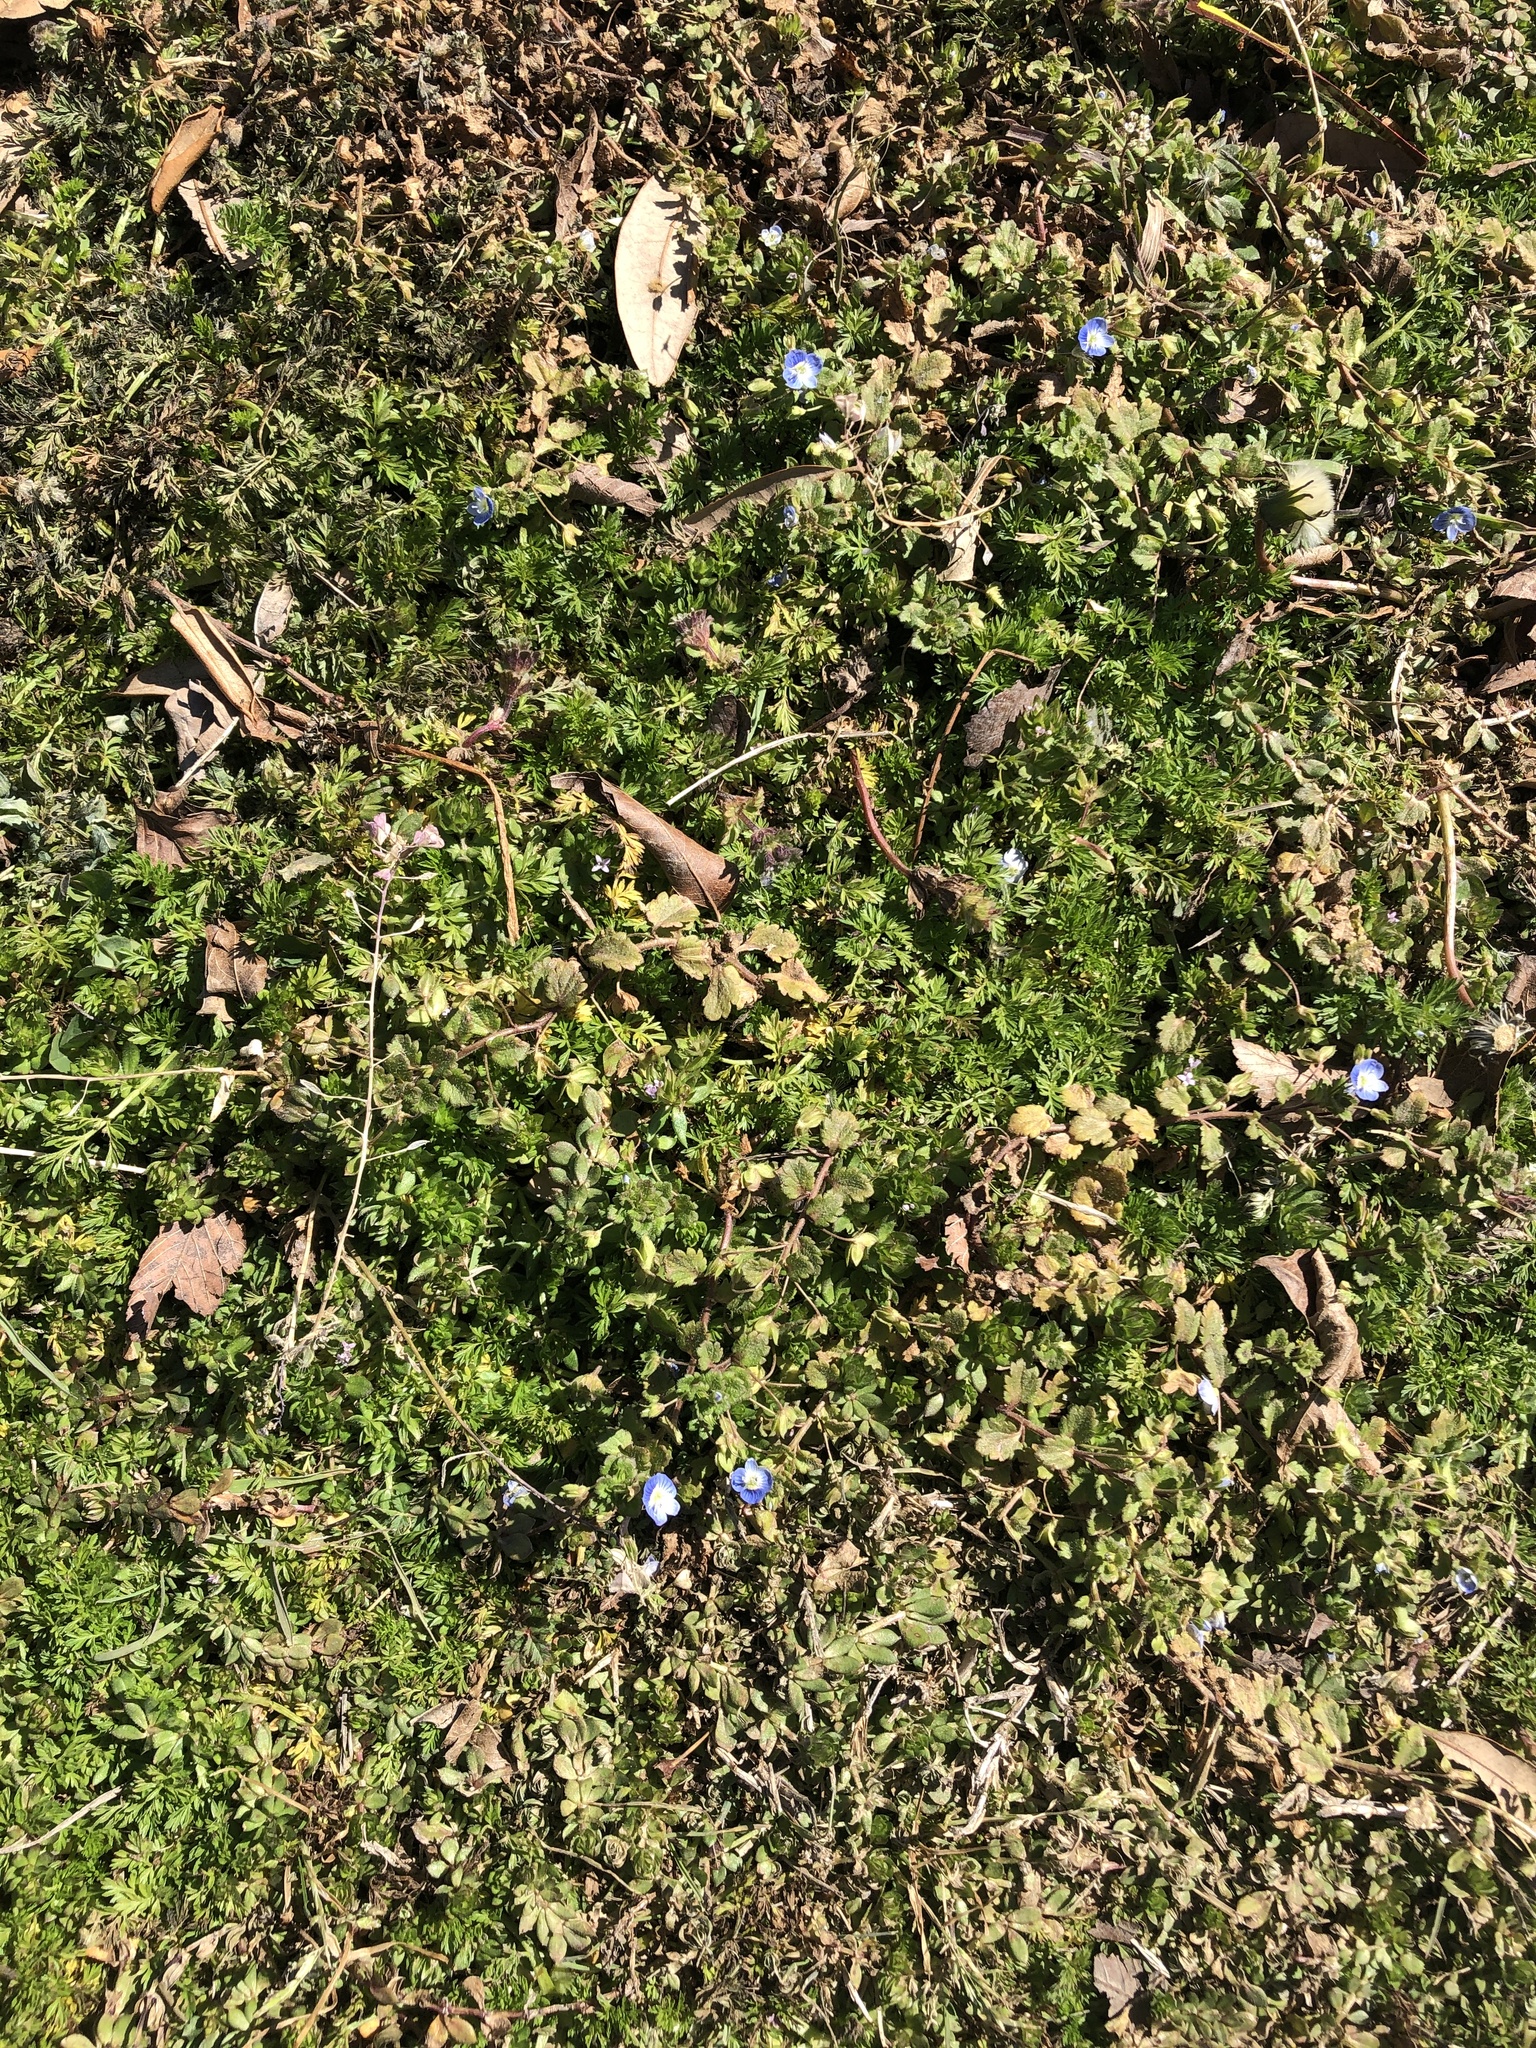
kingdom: Plantae
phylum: Tracheophyta
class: Magnoliopsida
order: Lamiales
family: Plantaginaceae
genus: Veronica
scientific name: Veronica persica
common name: Common field-speedwell
